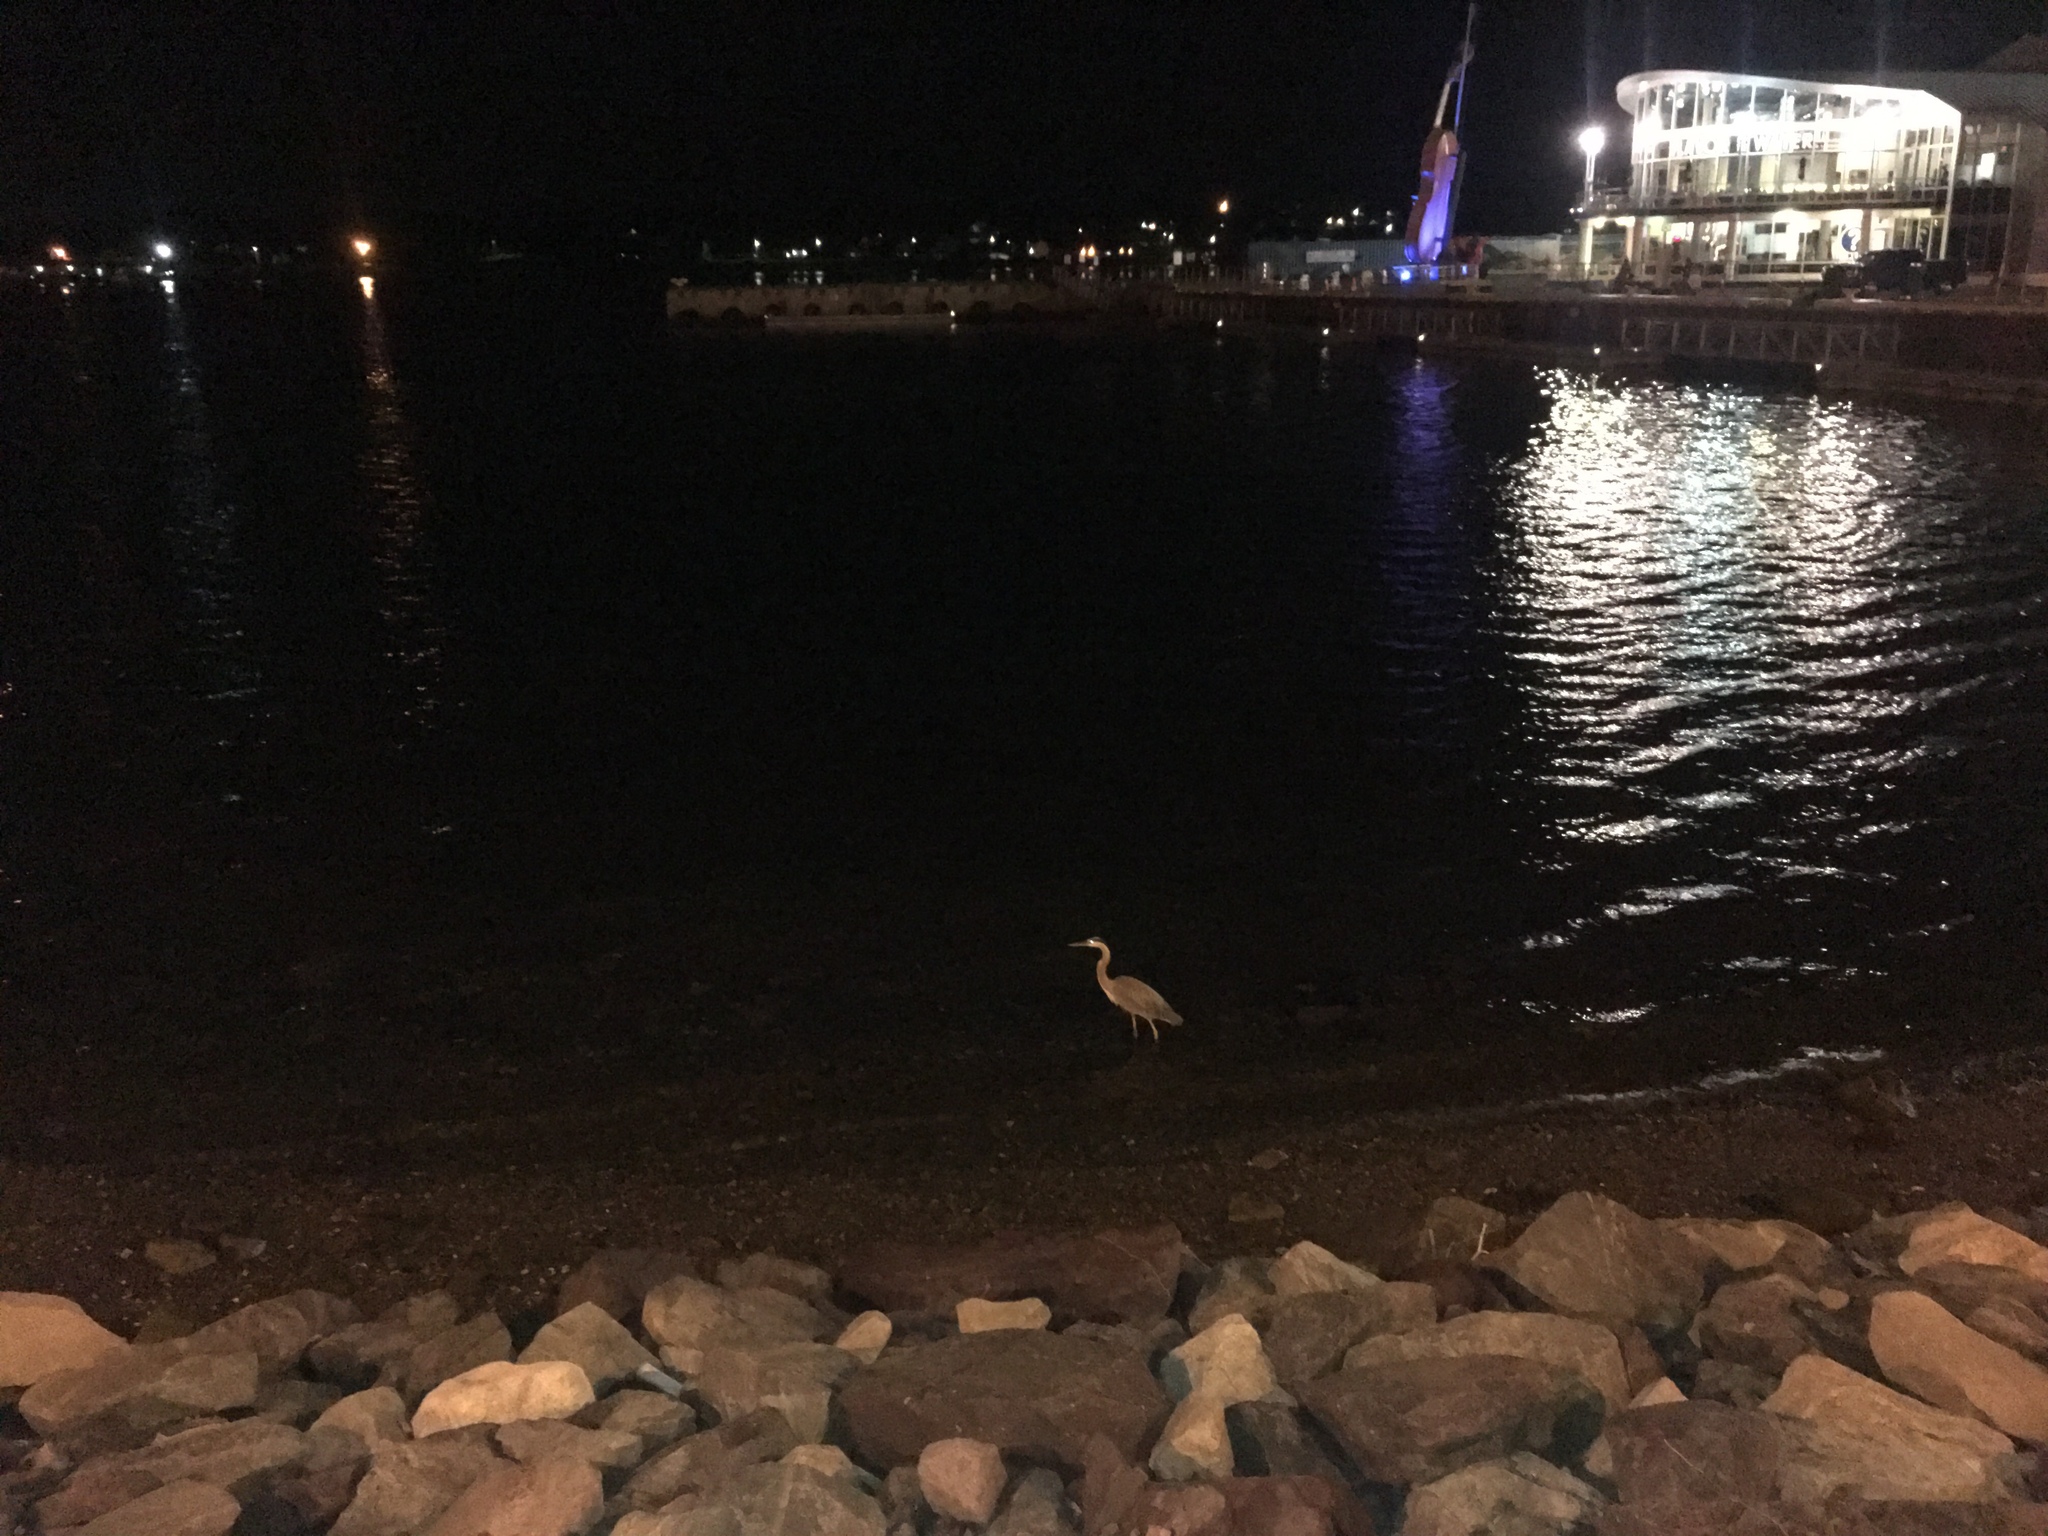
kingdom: Animalia
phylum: Chordata
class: Aves
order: Pelecaniformes
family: Ardeidae
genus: Ardea
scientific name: Ardea herodias
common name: Great blue heron
